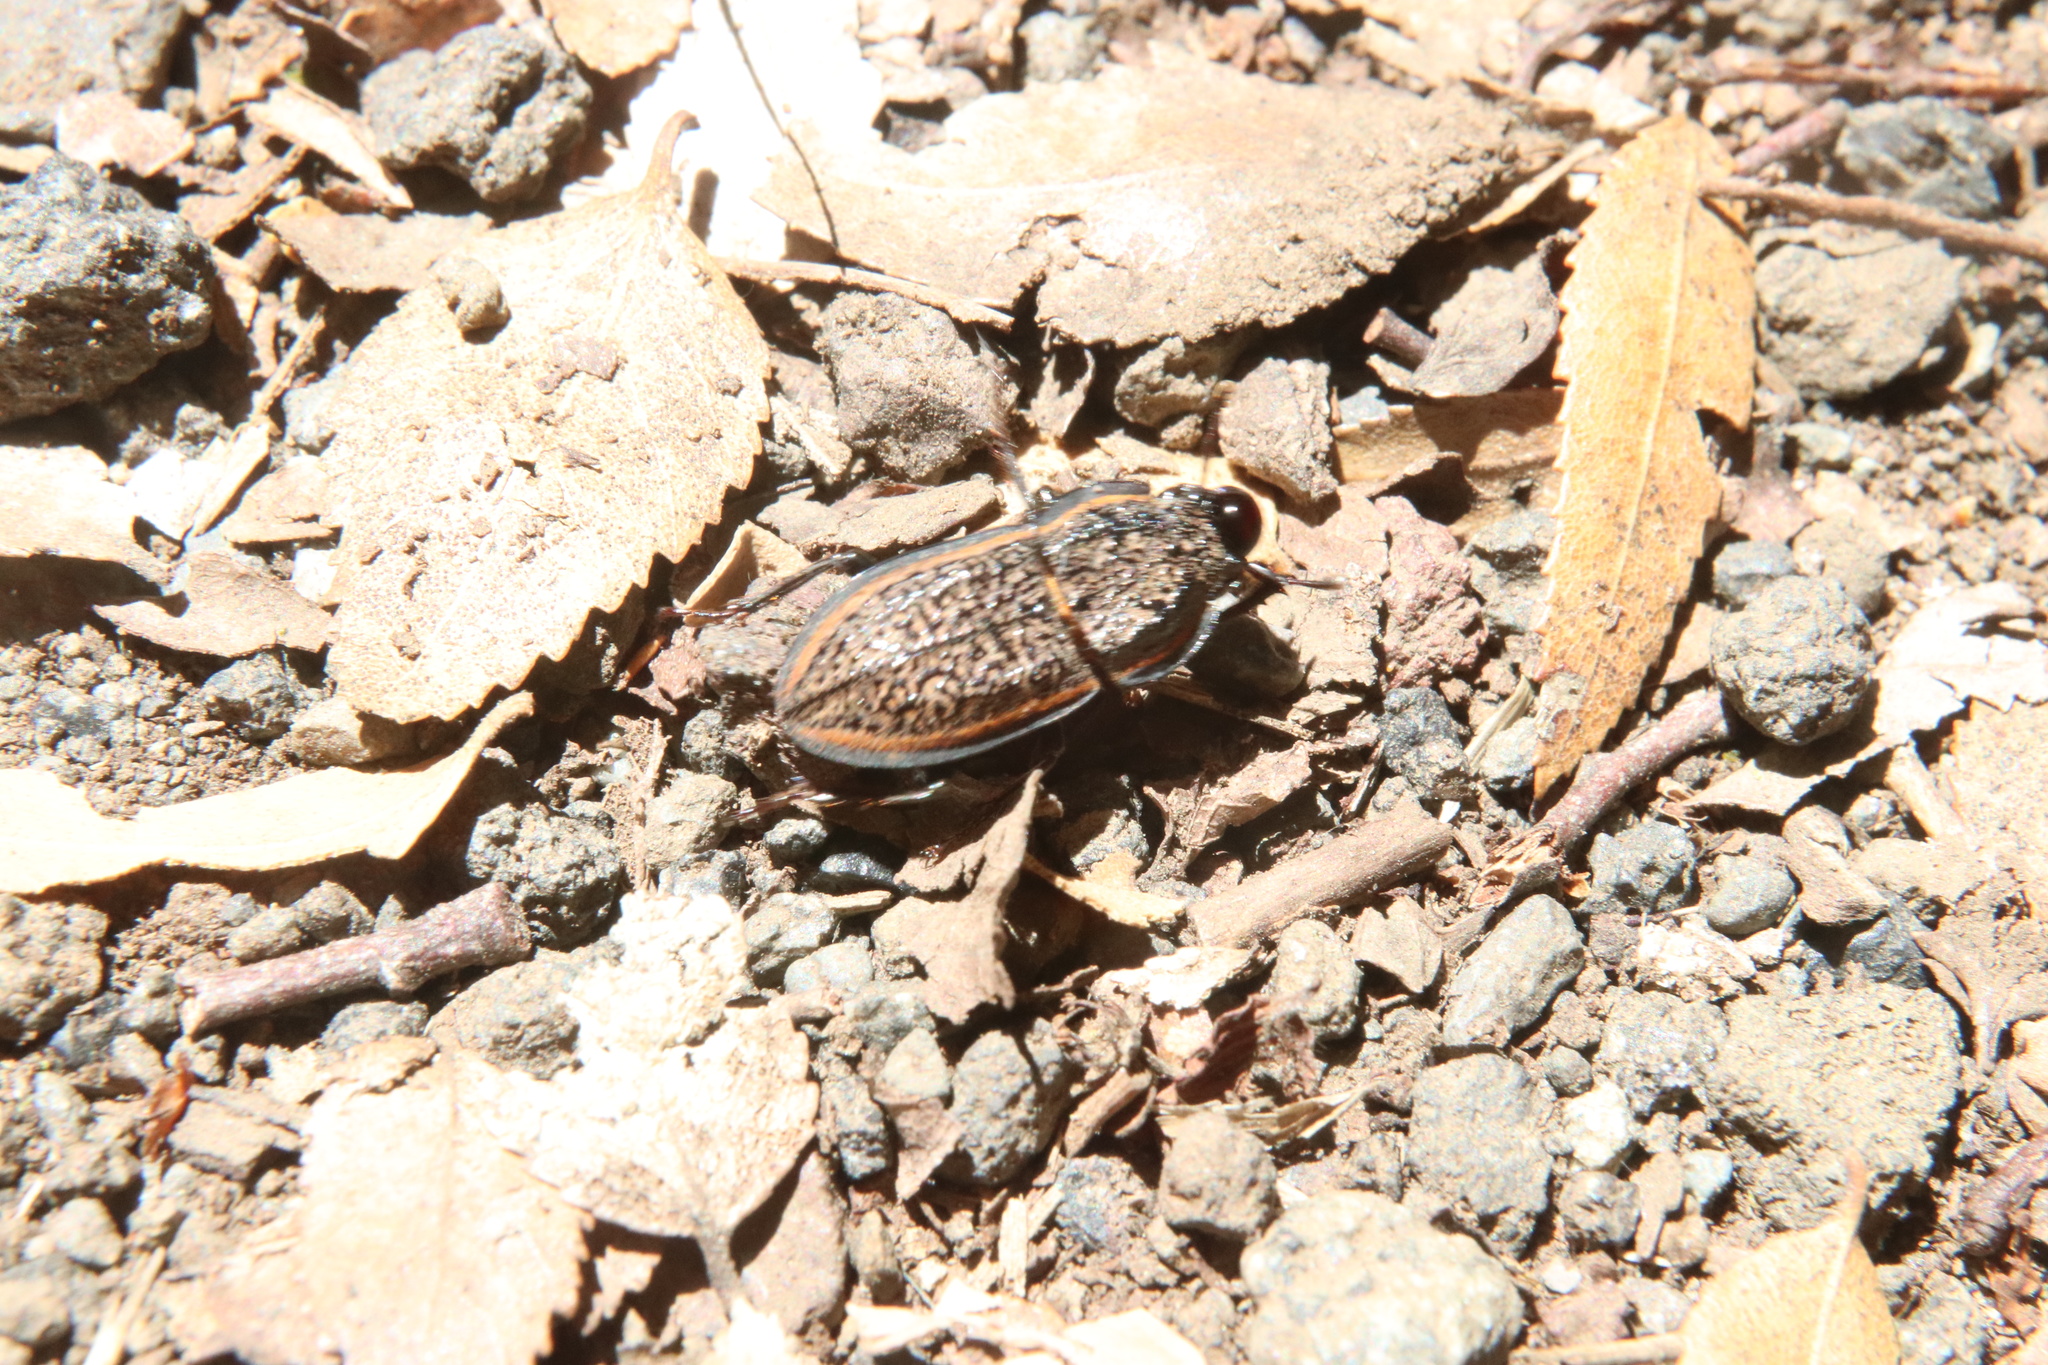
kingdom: Animalia
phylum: Arthropoda
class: Insecta
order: Coleoptera
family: Lucanidae
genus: Erichius
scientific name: Erichius caelatus
